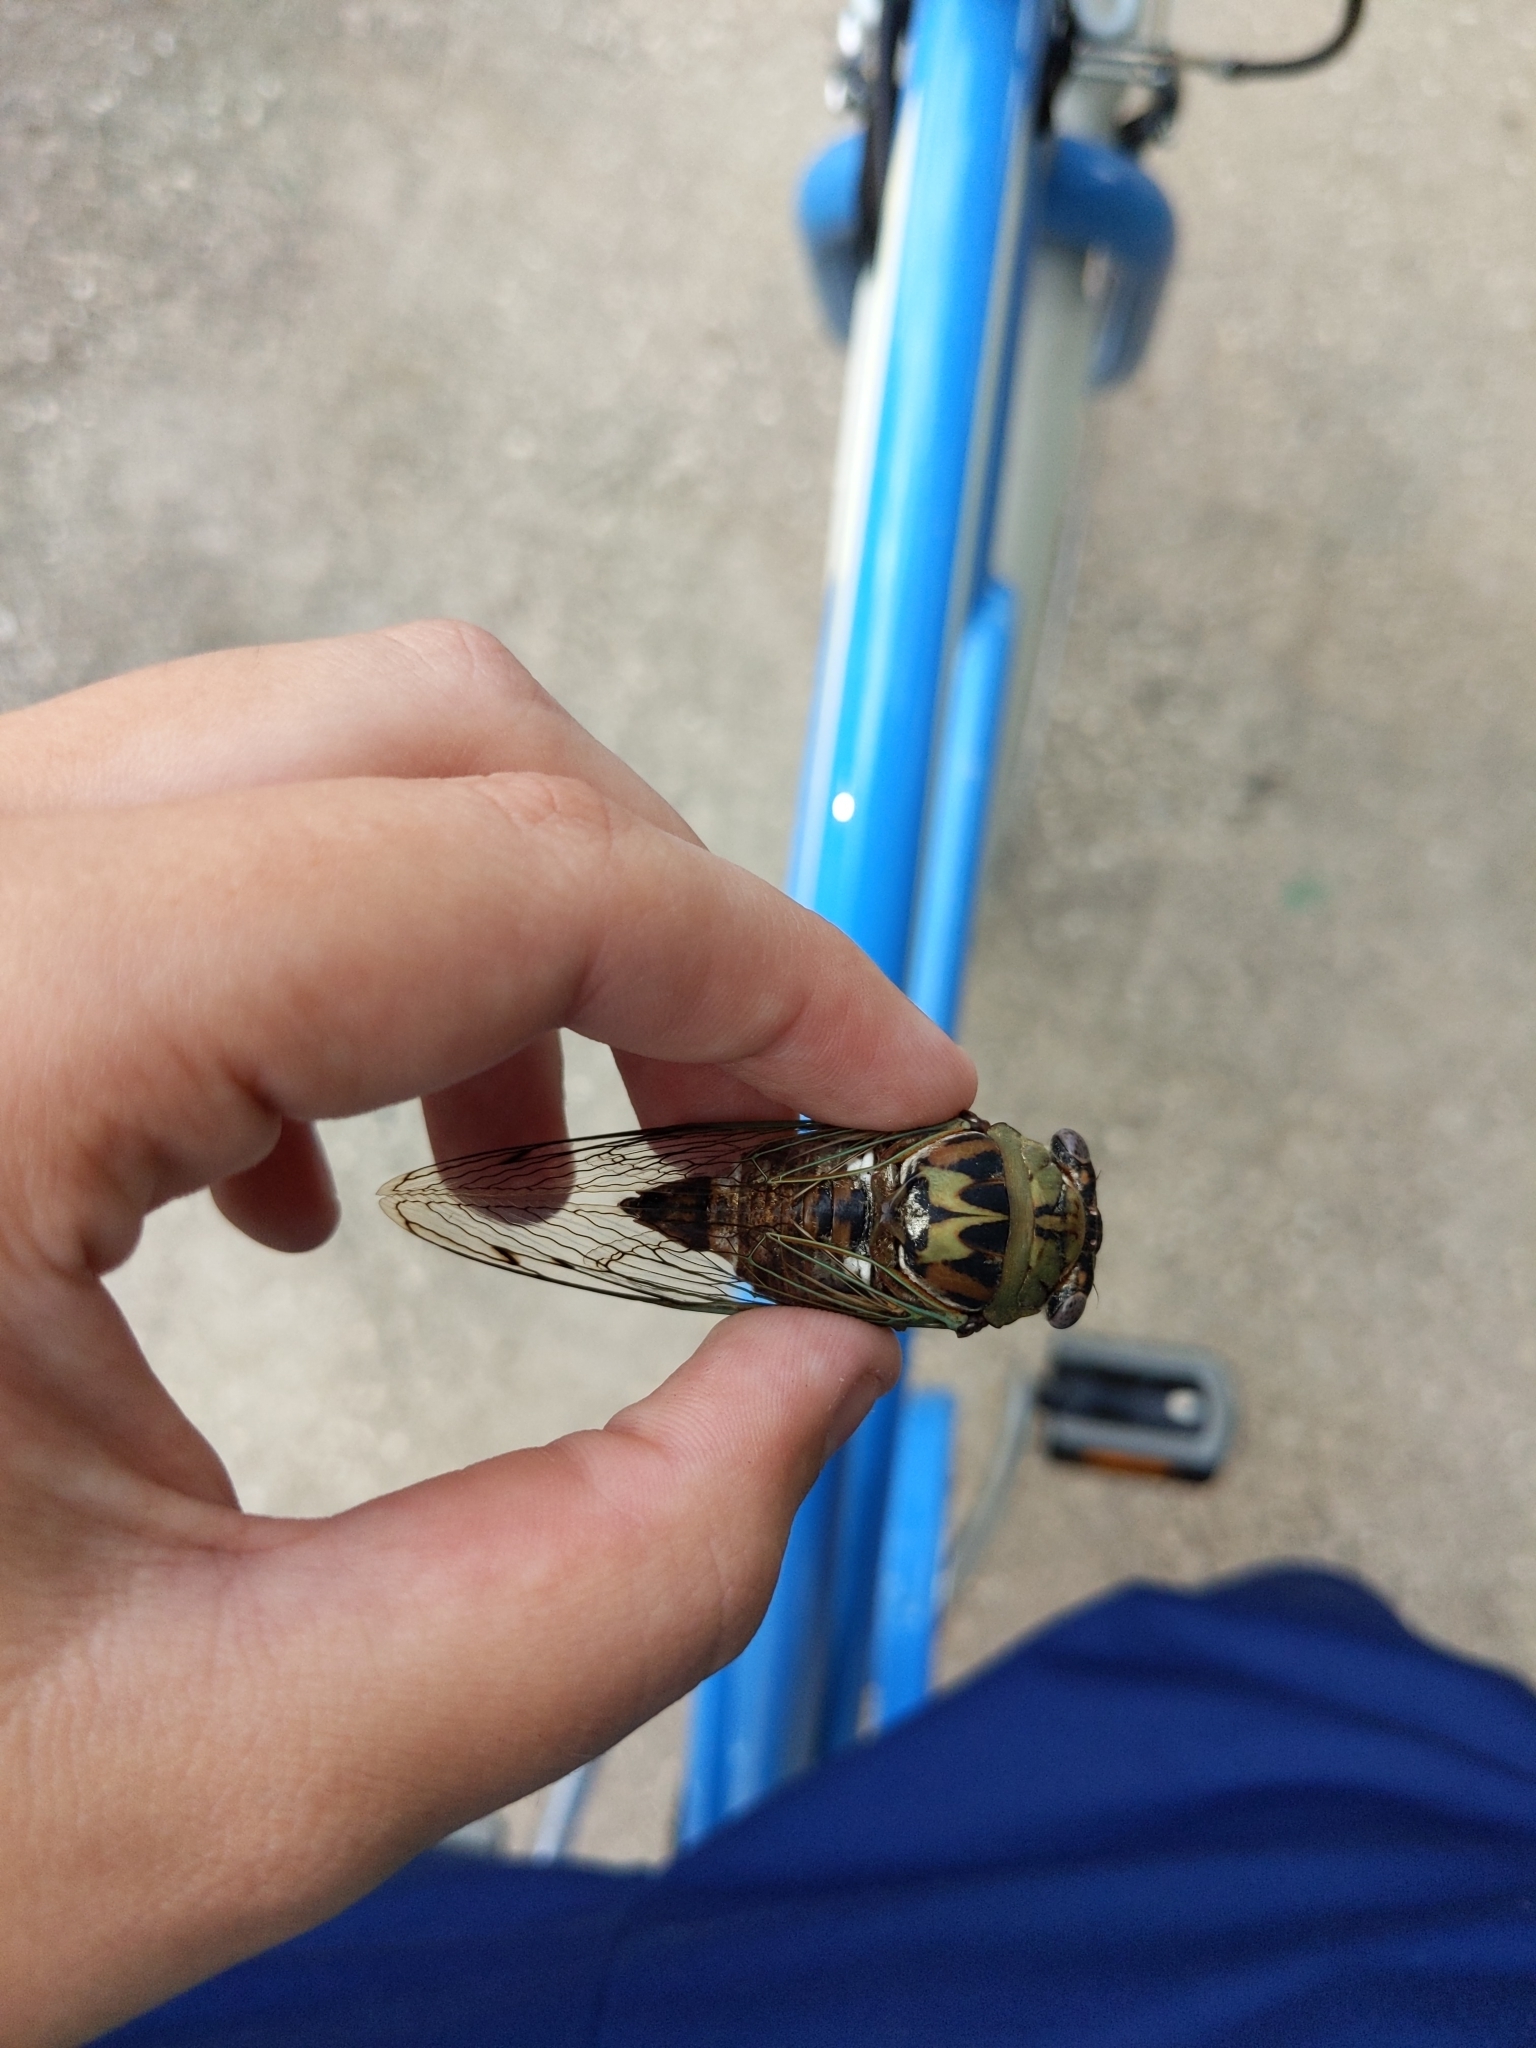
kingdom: Animalia
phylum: Arthropoda
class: Insecta
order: Hemiptera
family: Cicadidae
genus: Megatibicen
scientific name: Megatibicen resh
